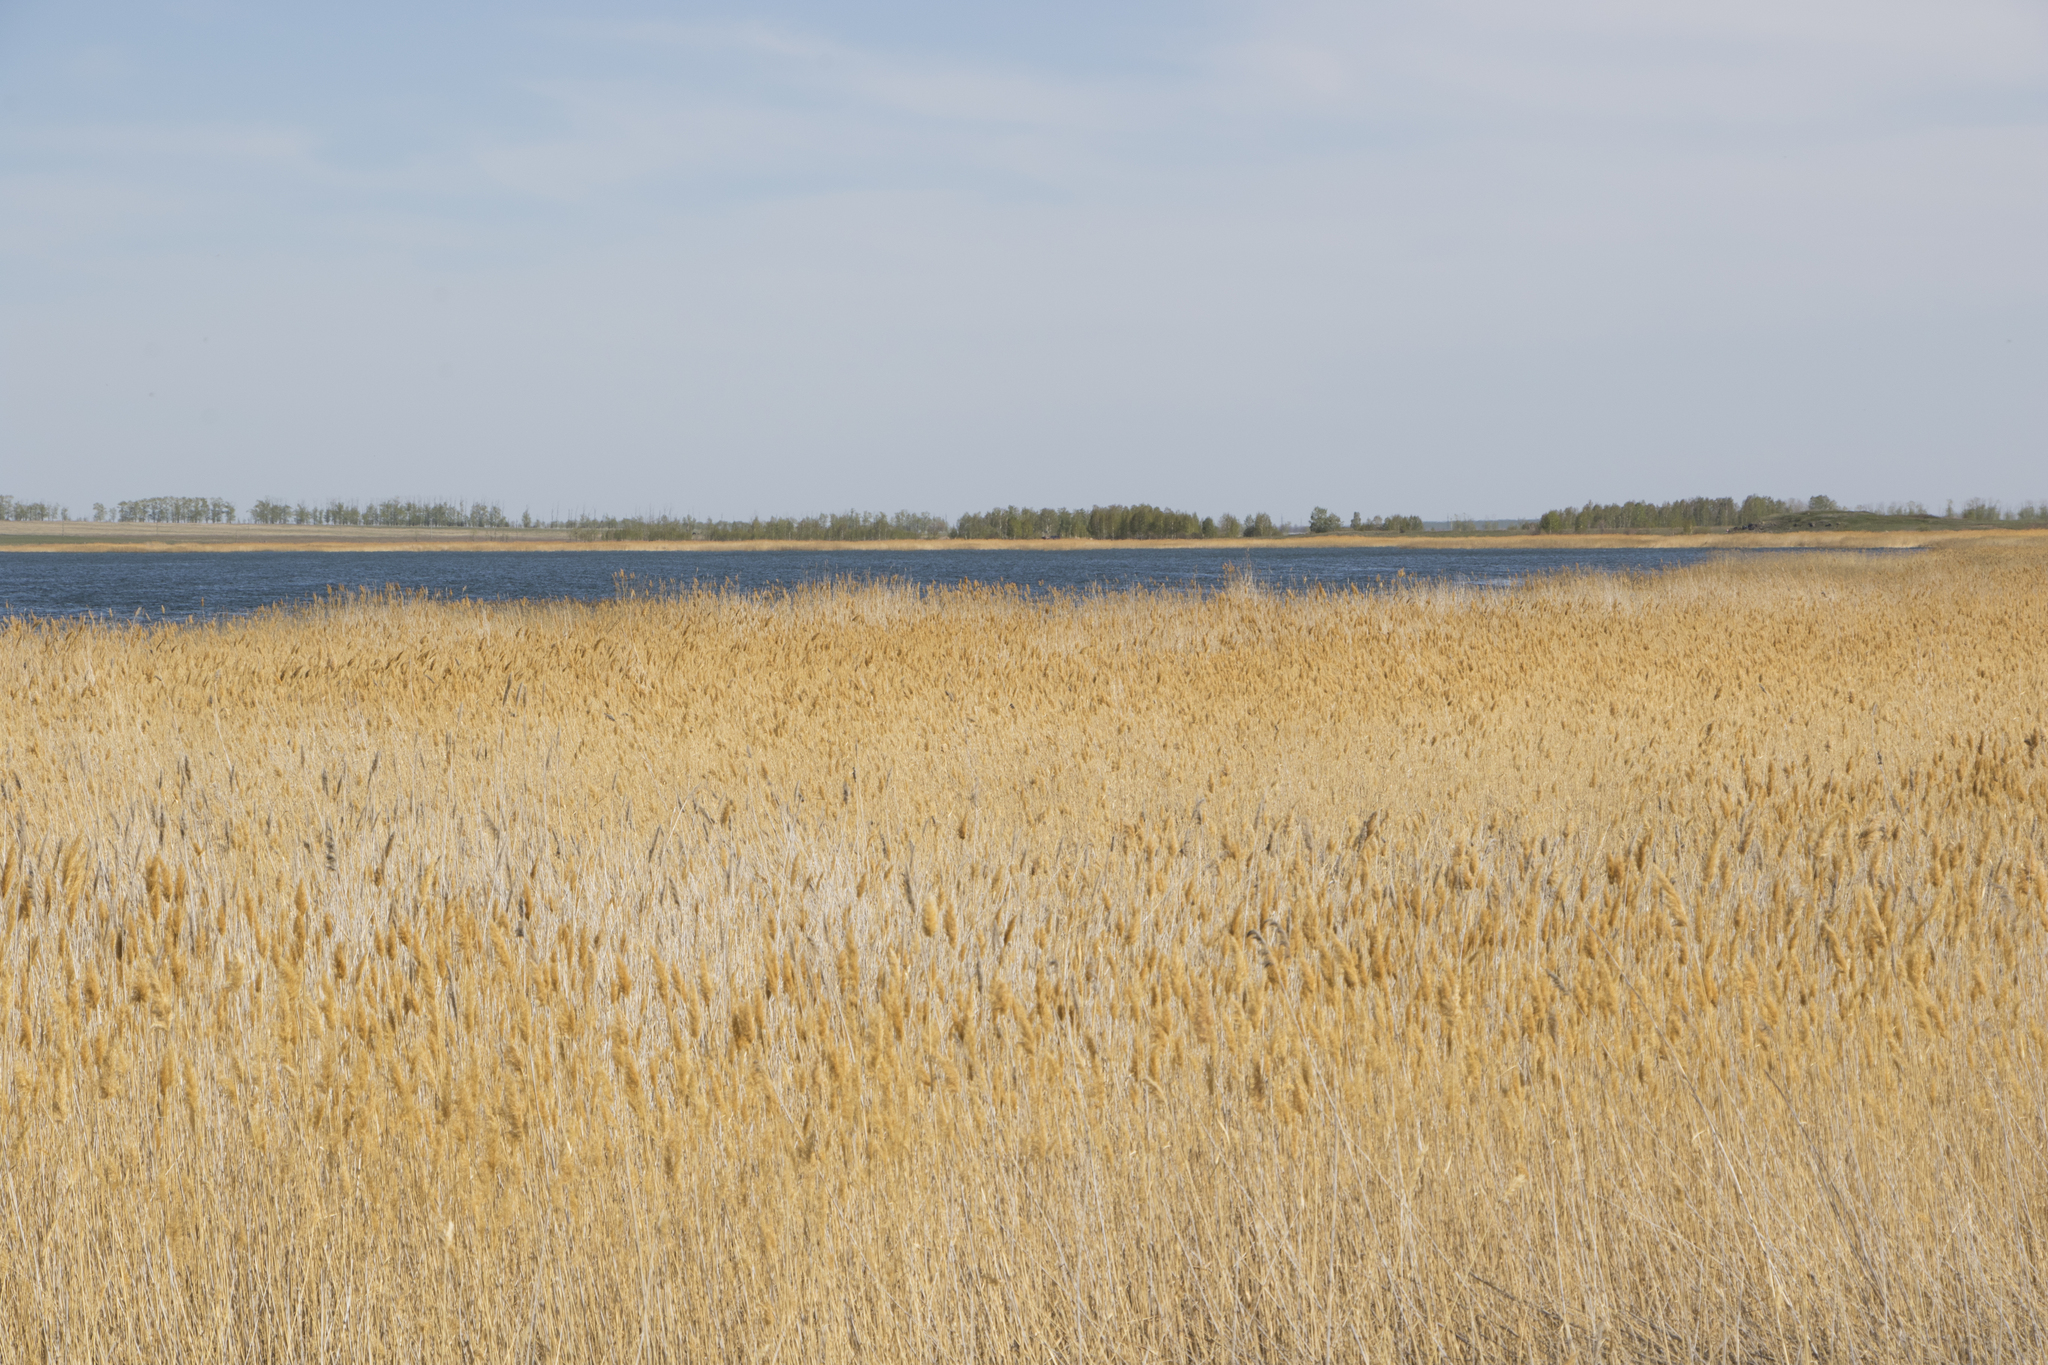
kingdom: Plantae
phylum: Tracheophyta
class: Liliopsida
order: Poales
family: Poaceae
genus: Phragmites
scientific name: Phragmites australis
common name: Common reed
